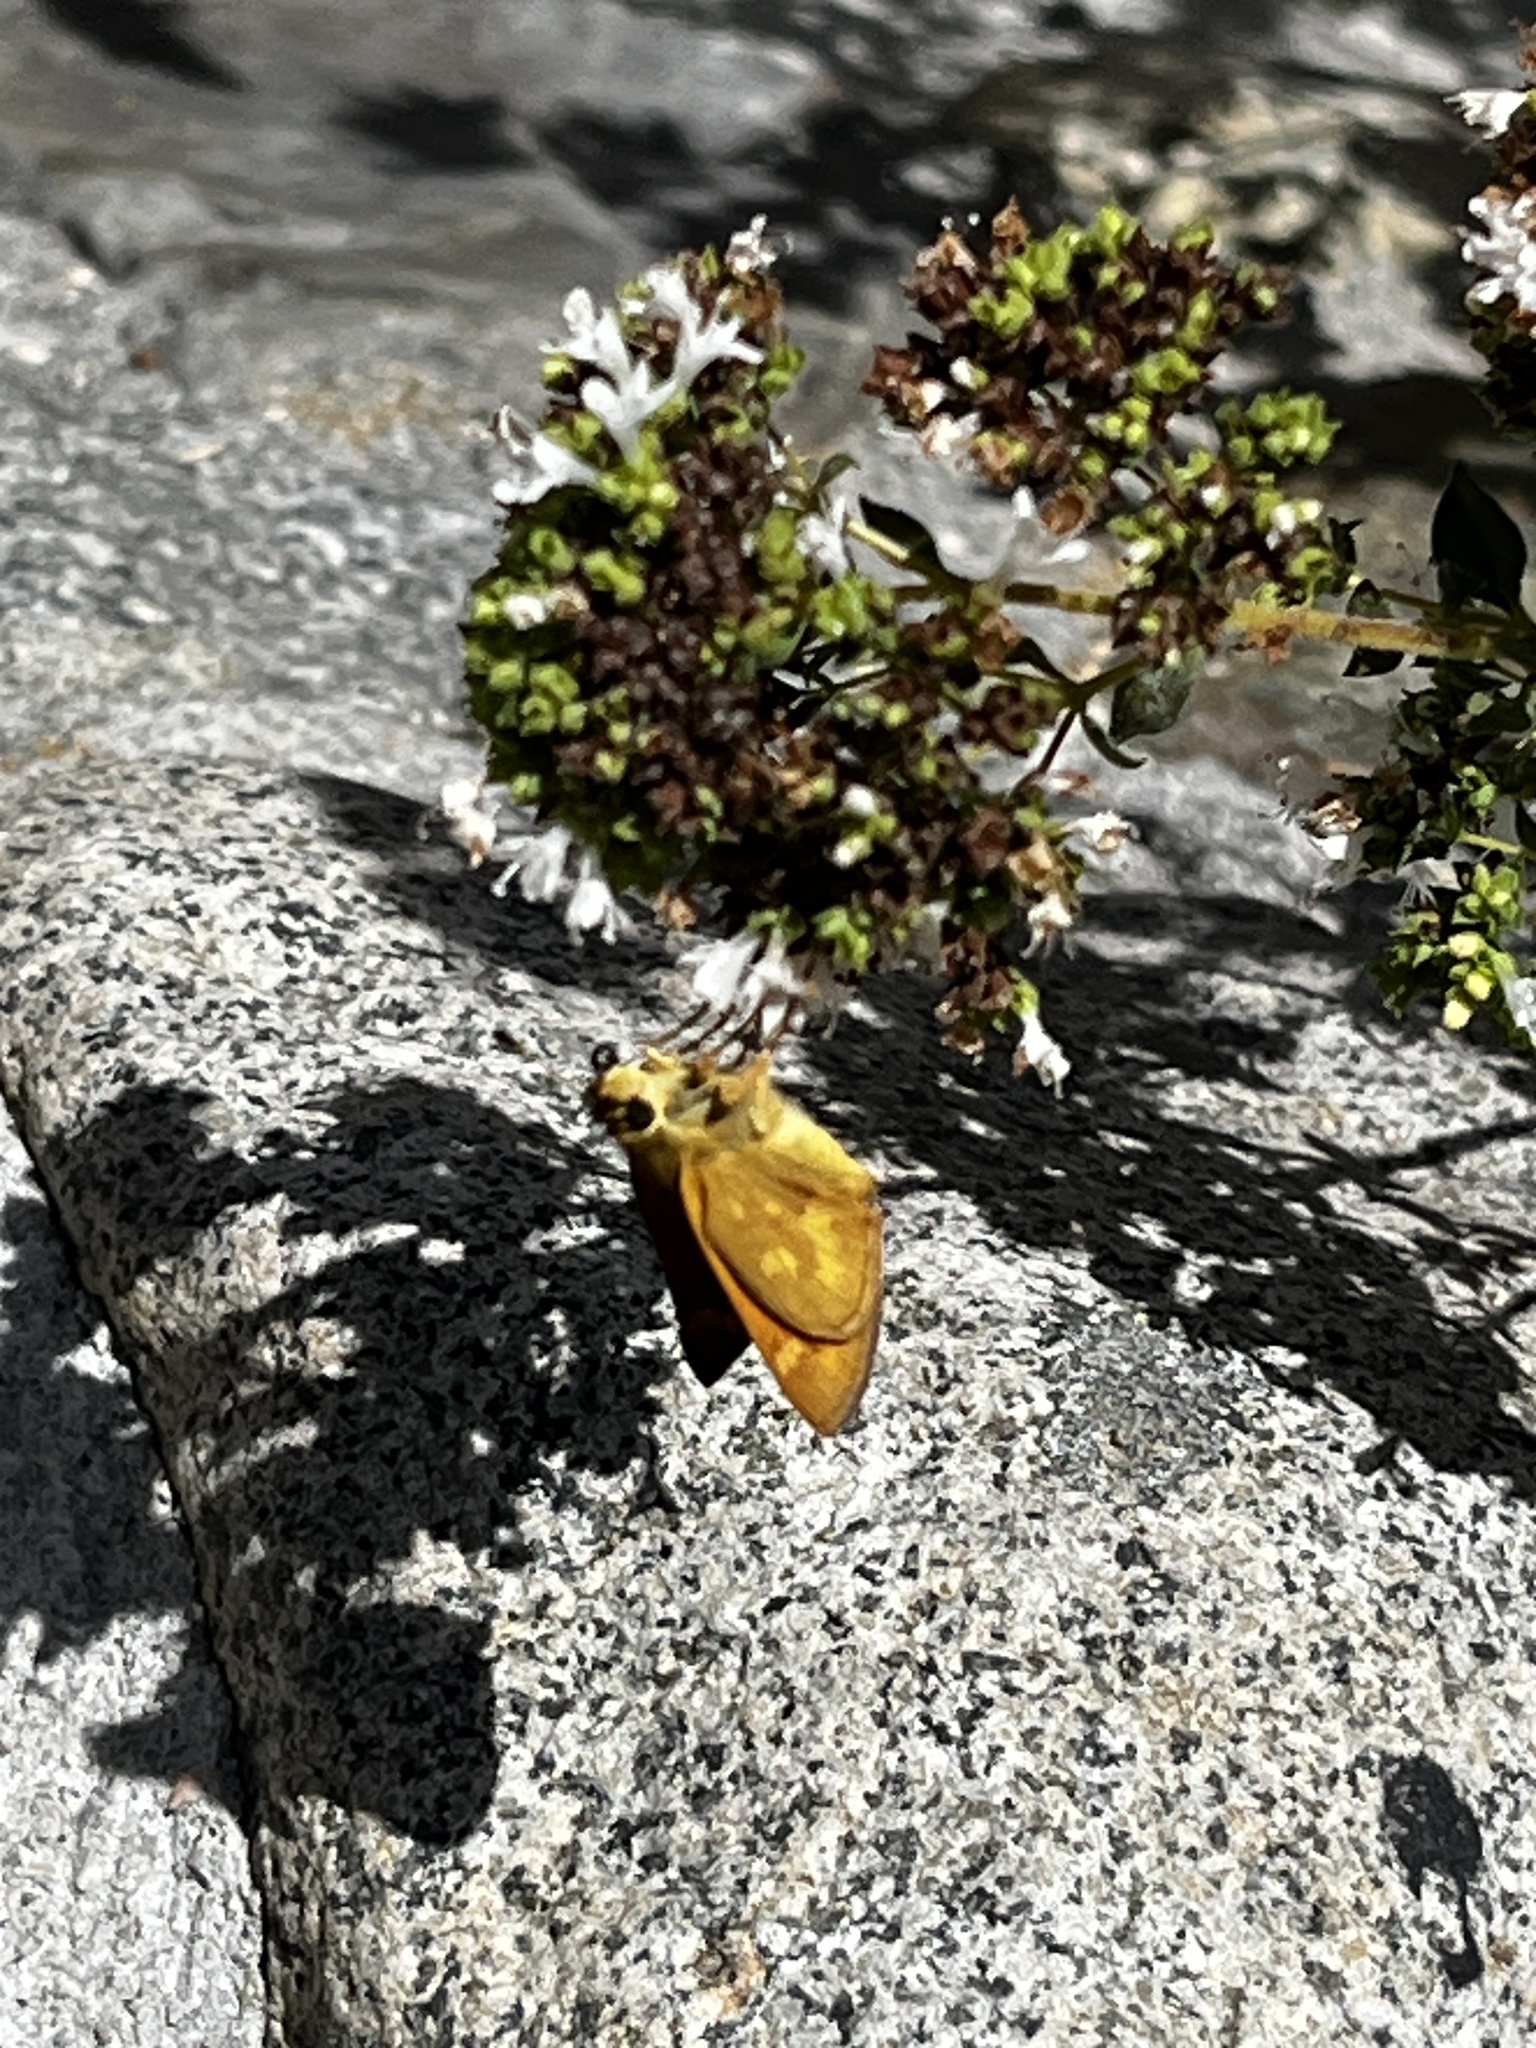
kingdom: Animalia
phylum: Arthropoda
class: Insecta
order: Lepidoptera
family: Hesperiidae
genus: Ochlodes
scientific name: Ochlodes sylvanoides
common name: Woodland skipper
